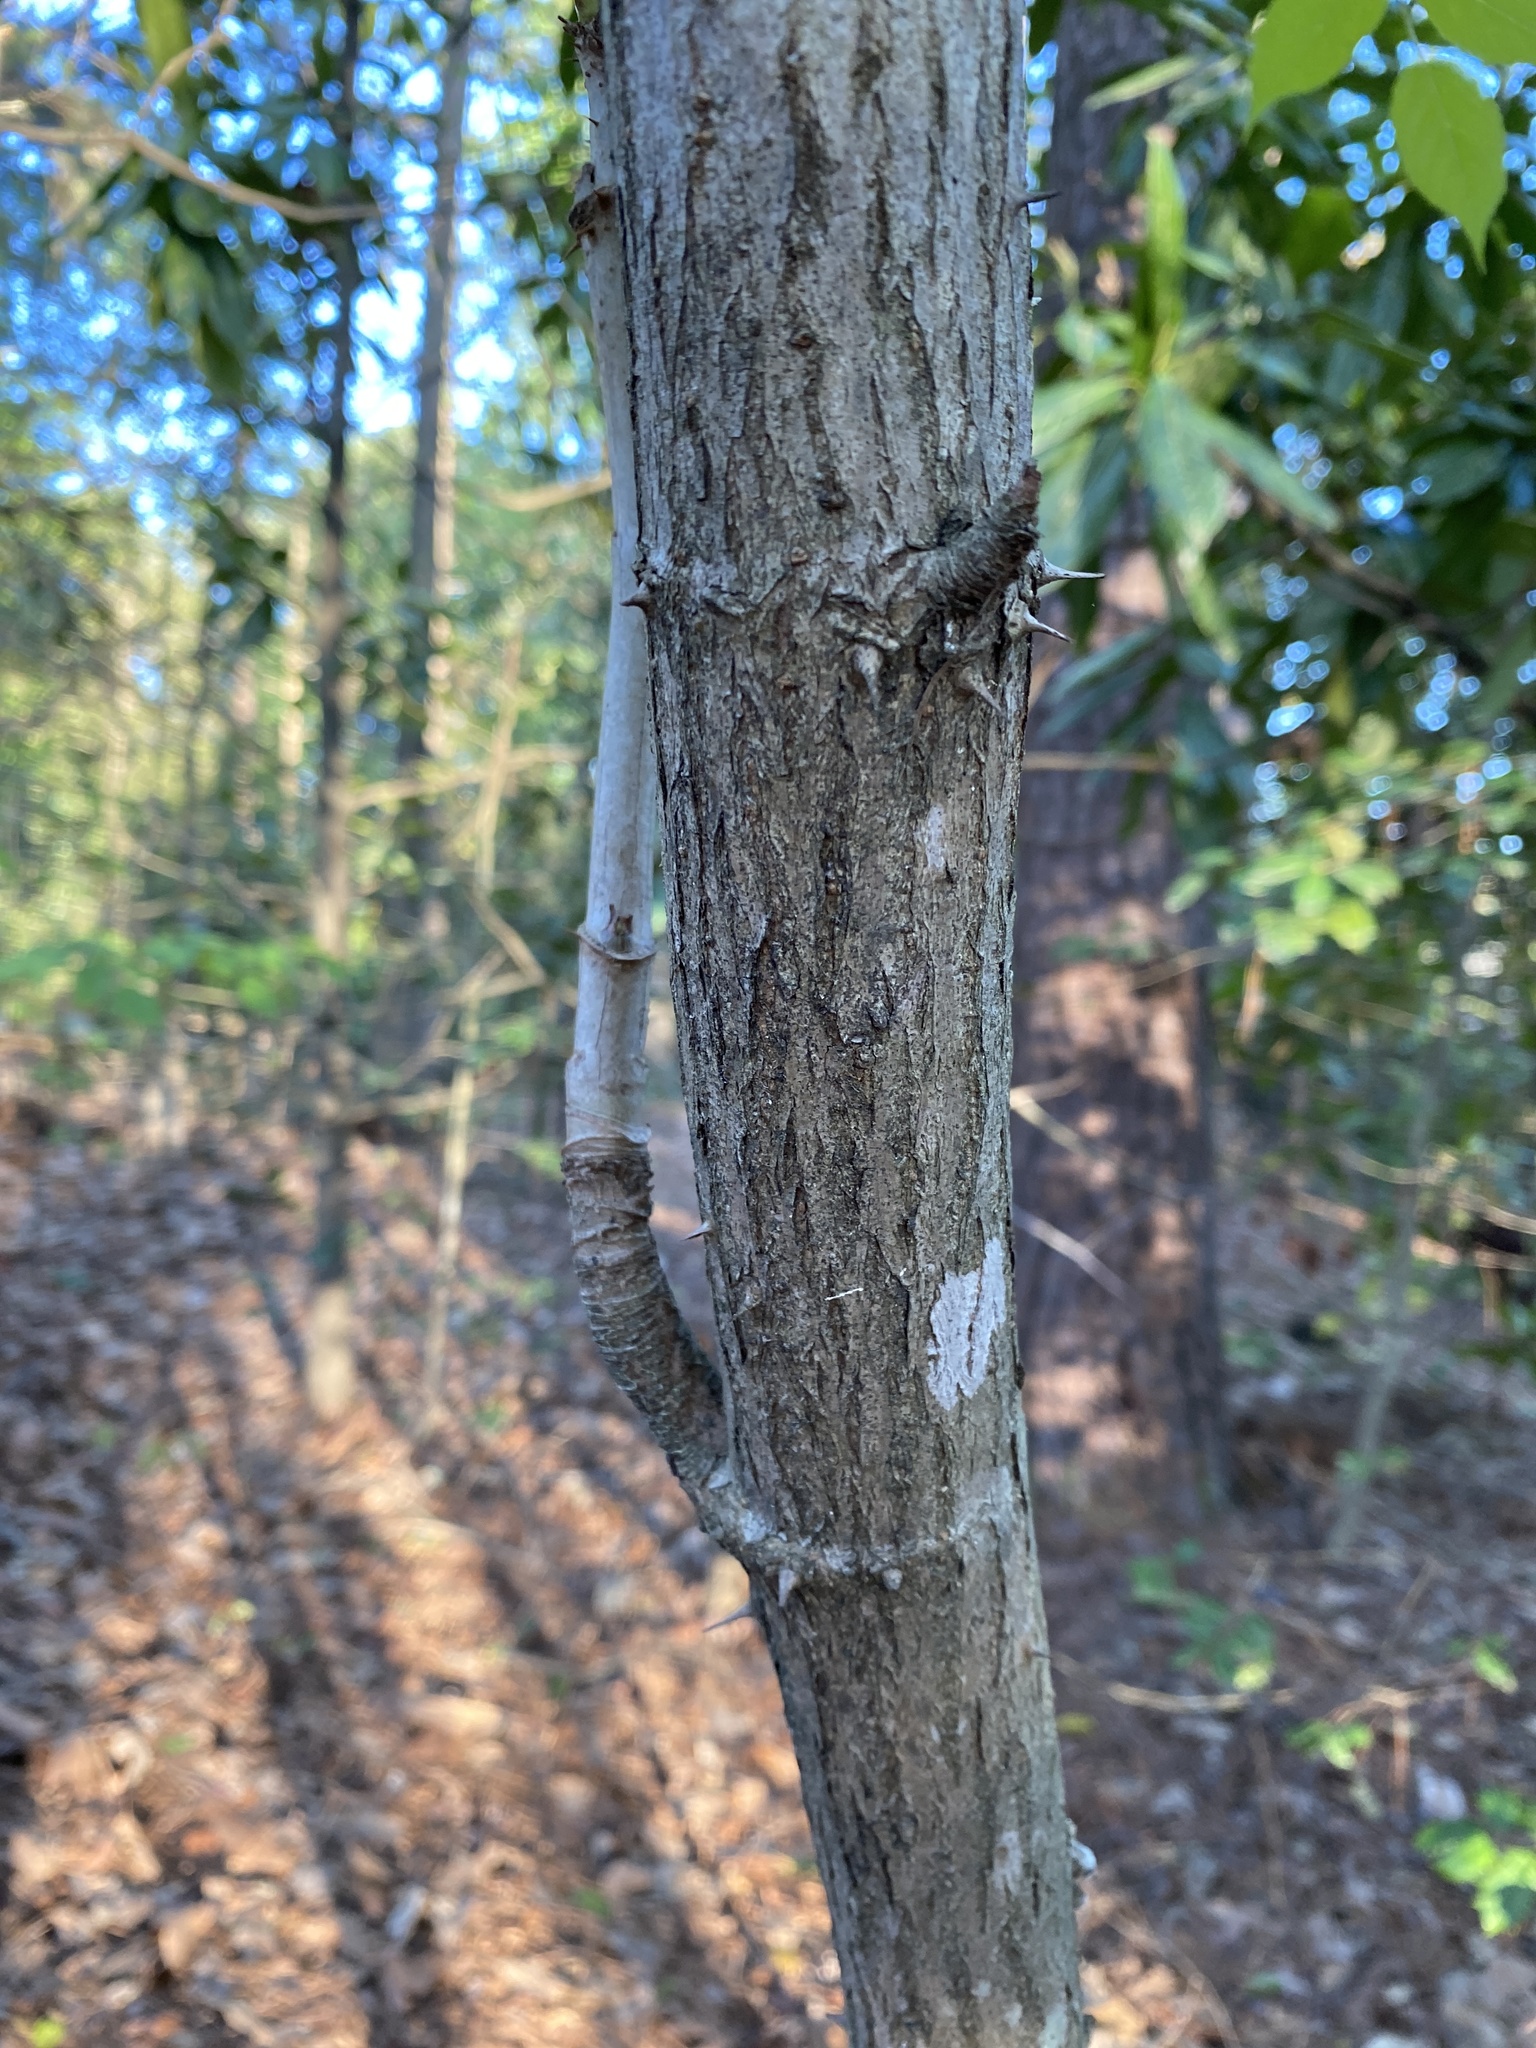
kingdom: Plantae
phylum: Tracheophyta
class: Magnoliopsida
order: Apiales
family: Araliaceae
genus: Aralia
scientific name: Aralia spinosa
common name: Hercules'-club
